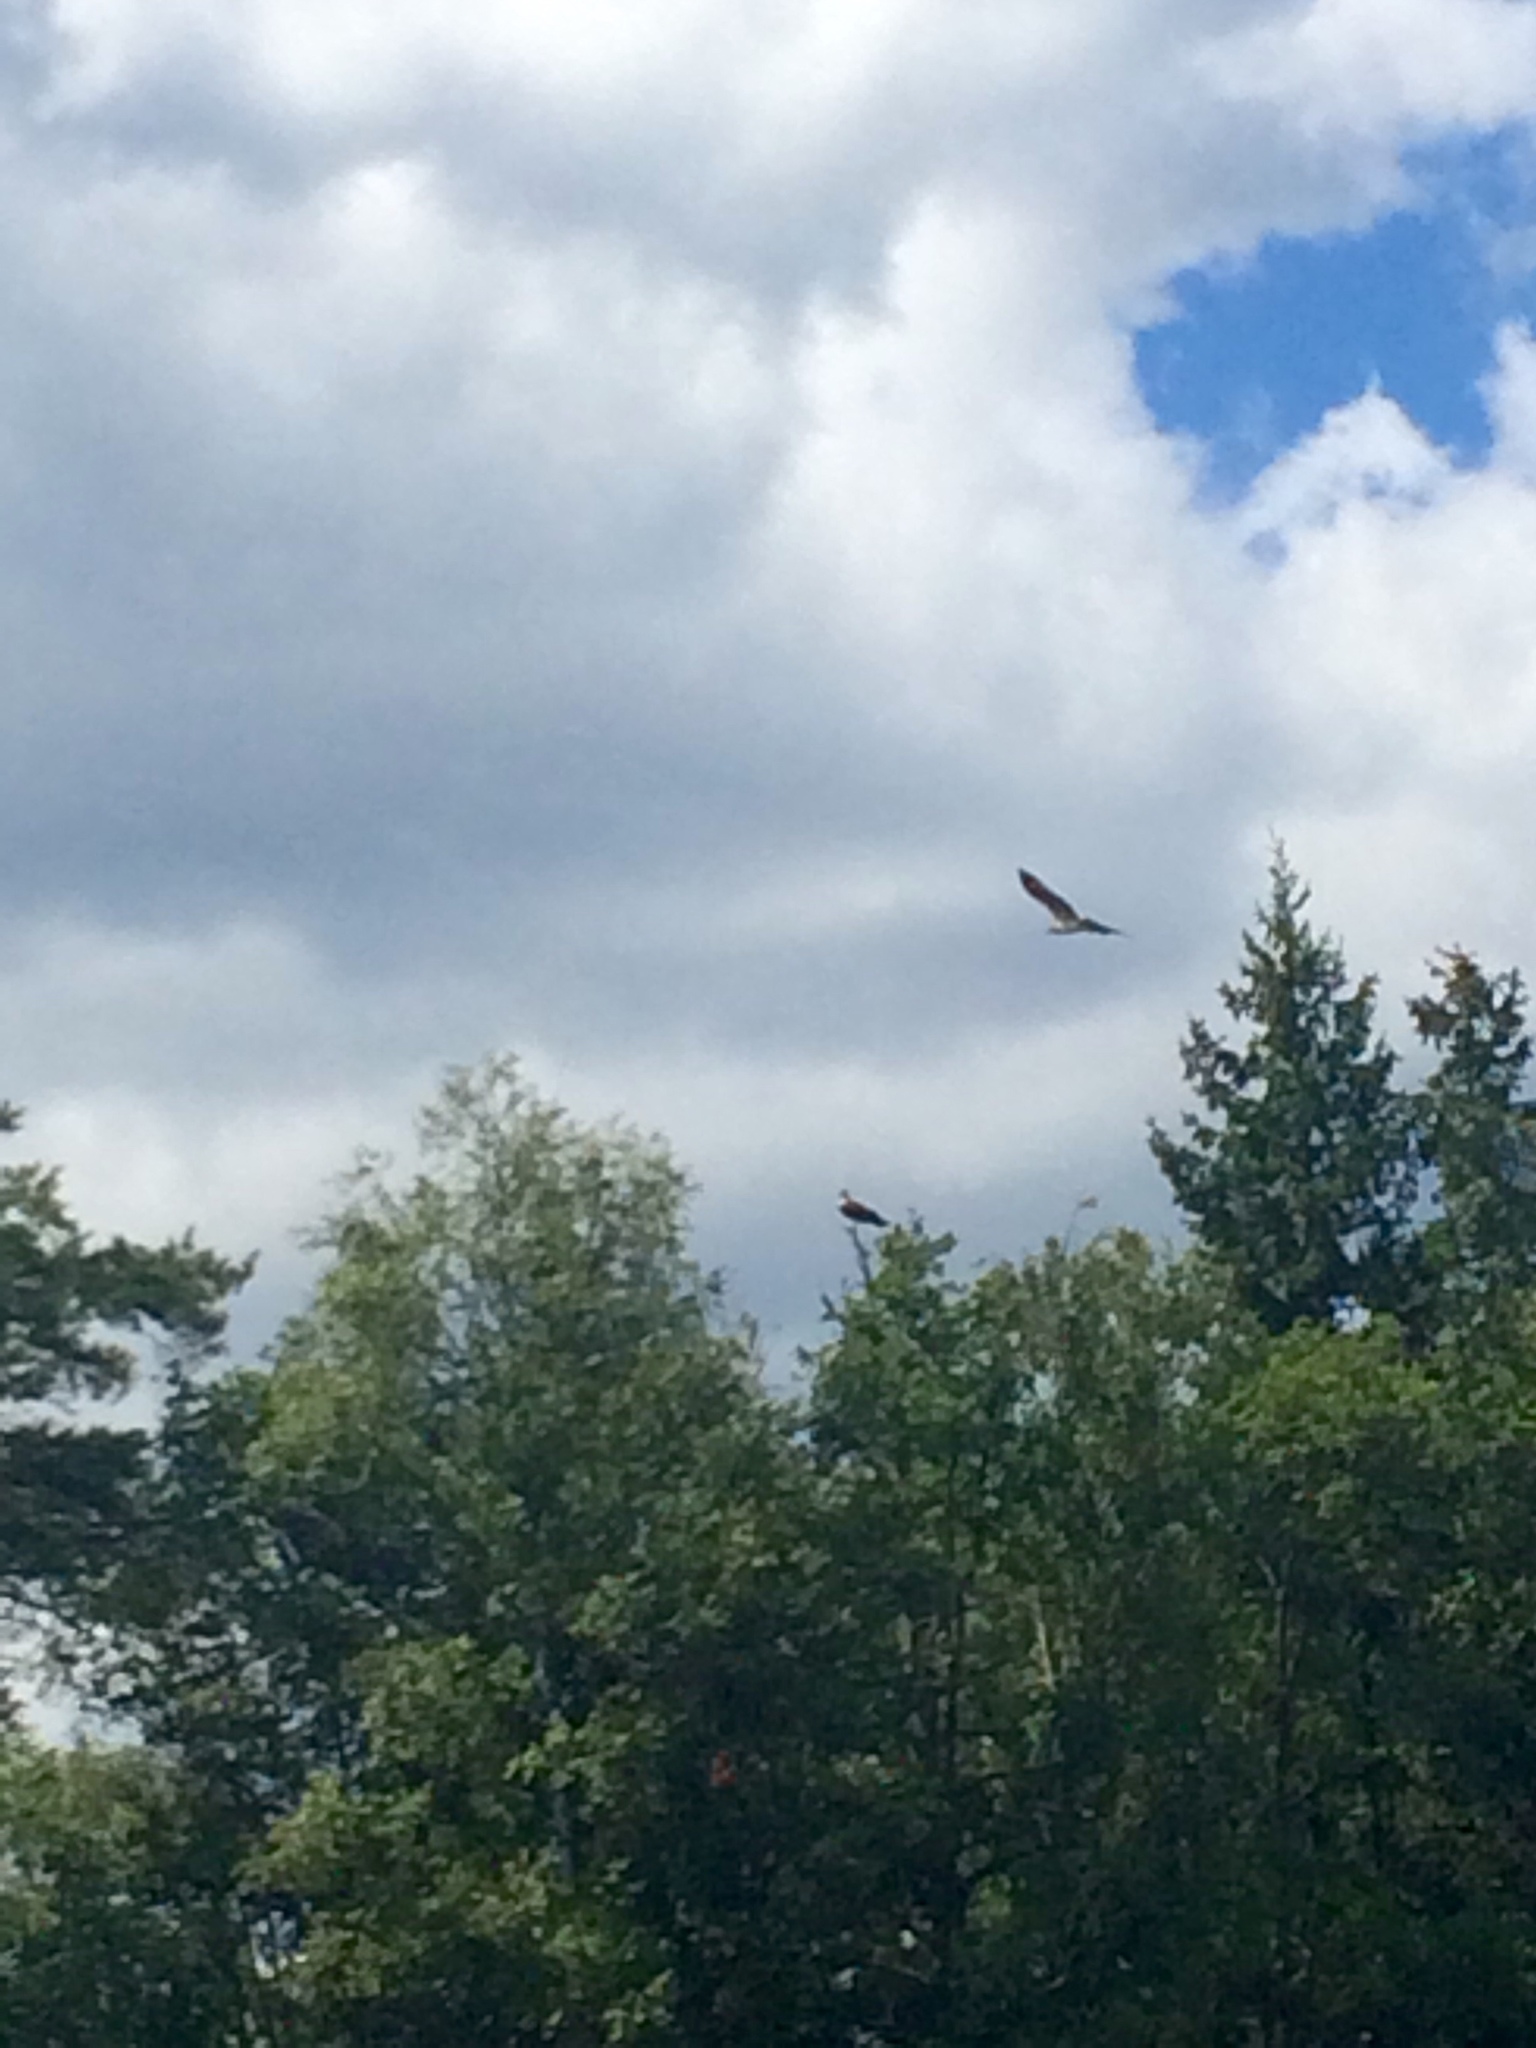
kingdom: Animalia
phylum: Chordata
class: Aves
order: Accipitriformes
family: Pandionidae
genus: Pandion
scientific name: Pandion haliaetus
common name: Osprey
